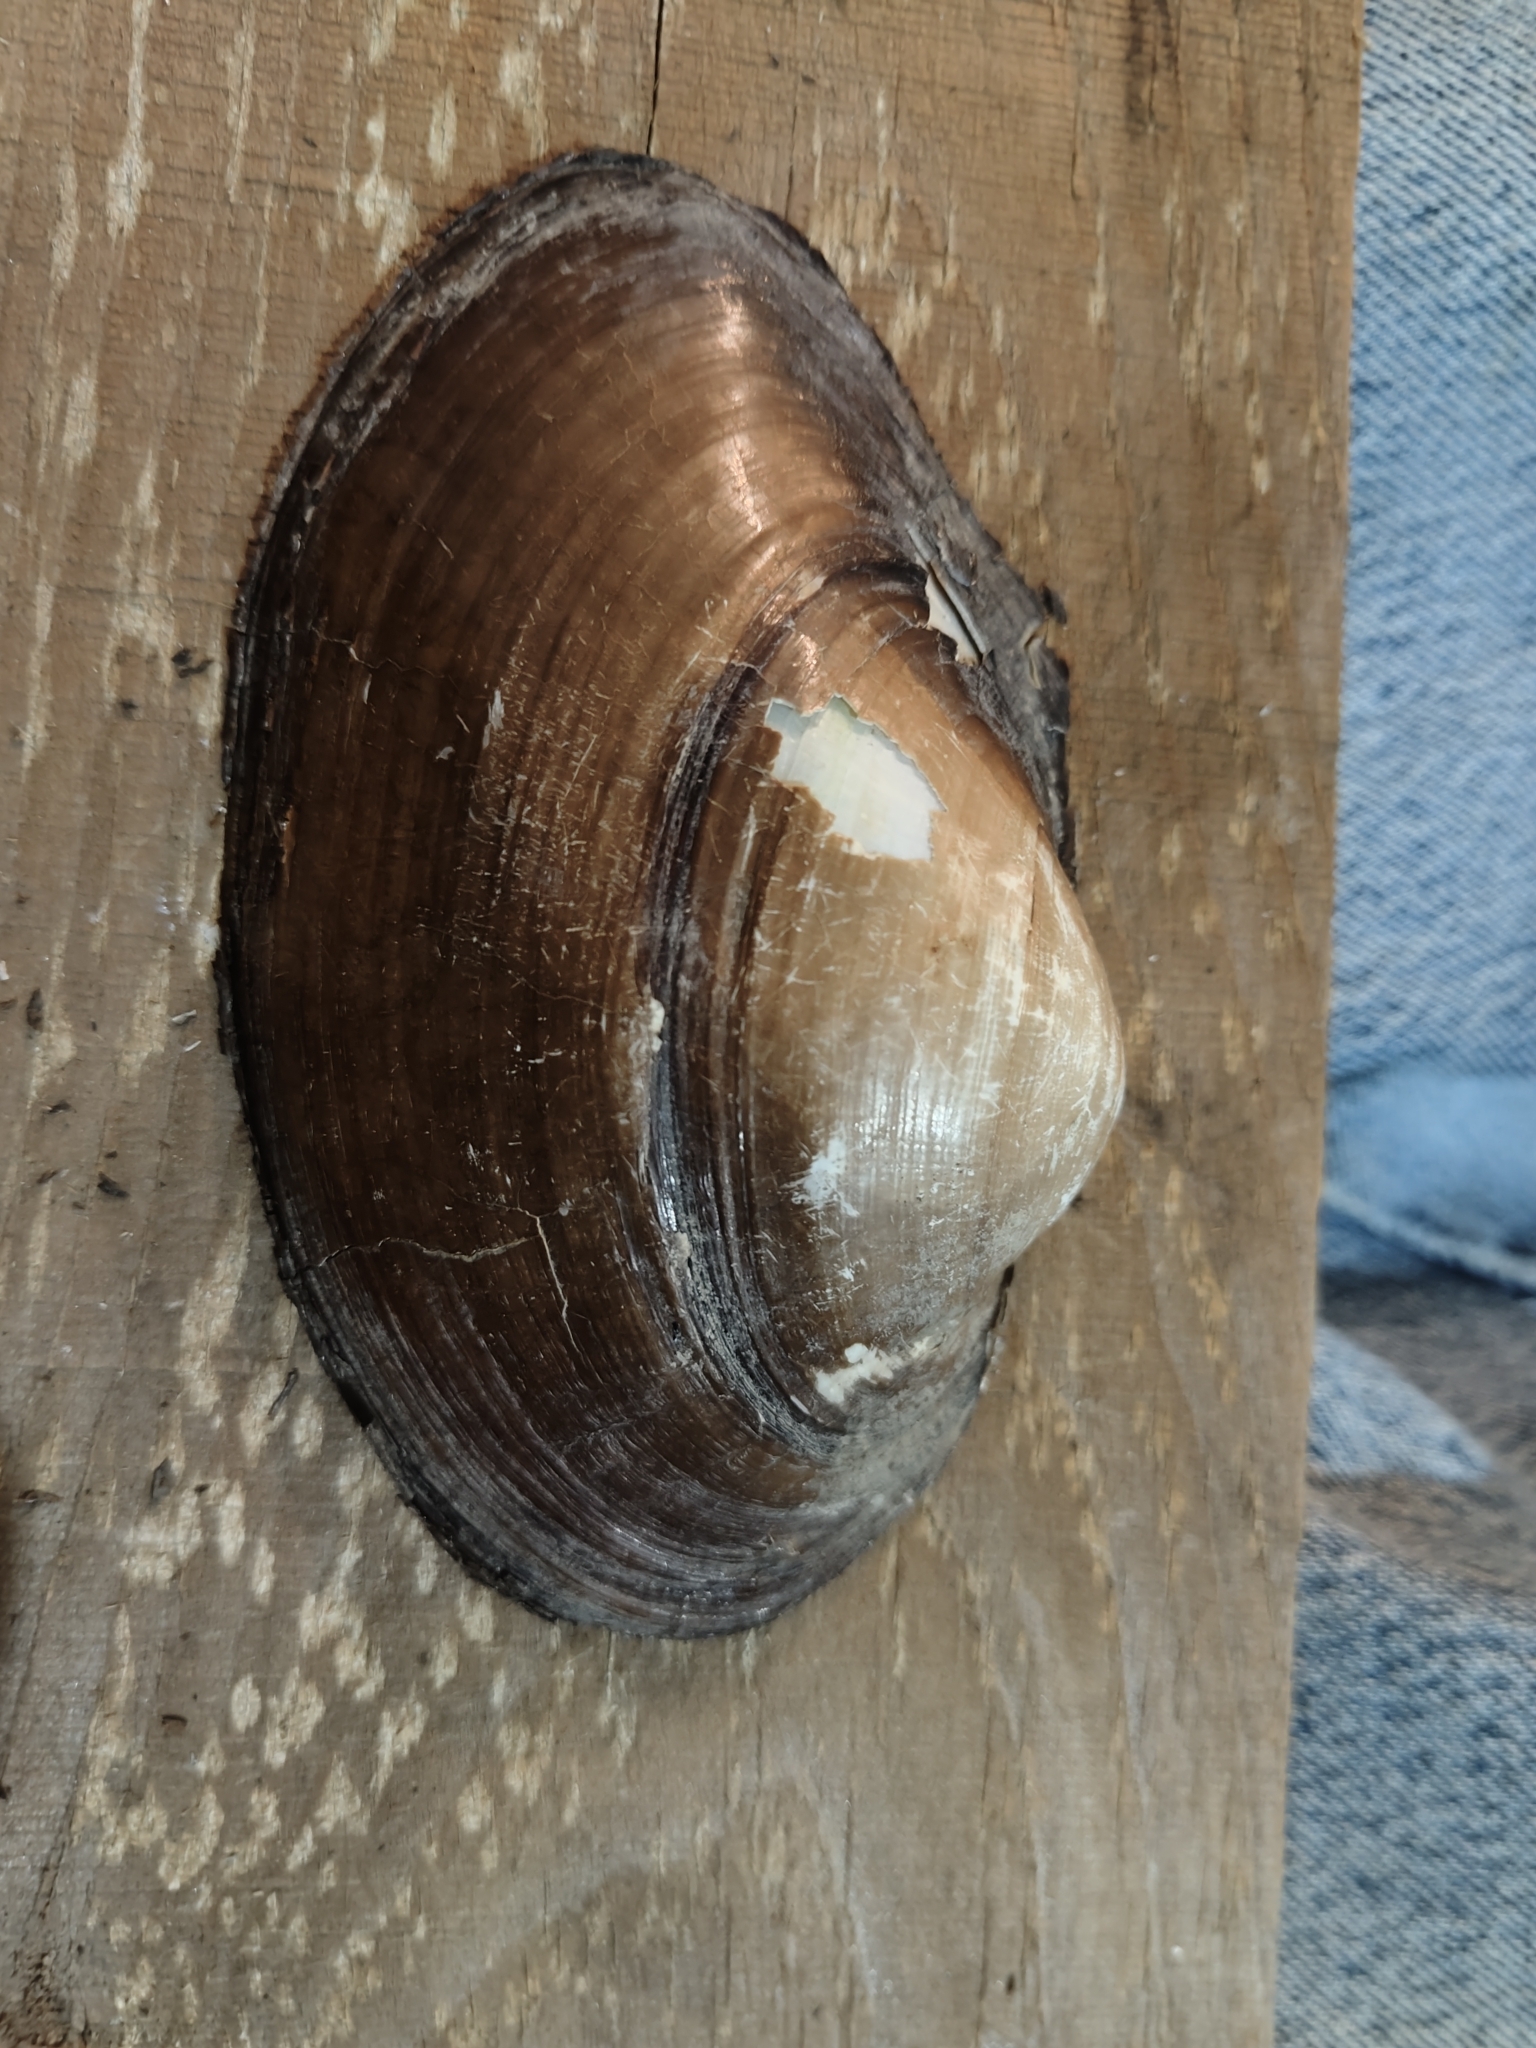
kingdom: Animalia
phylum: Mollusca
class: Bivalvia
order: Unionida
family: Unionidae
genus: Pyganodon
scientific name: Pyganodon grandis
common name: Giant floater
